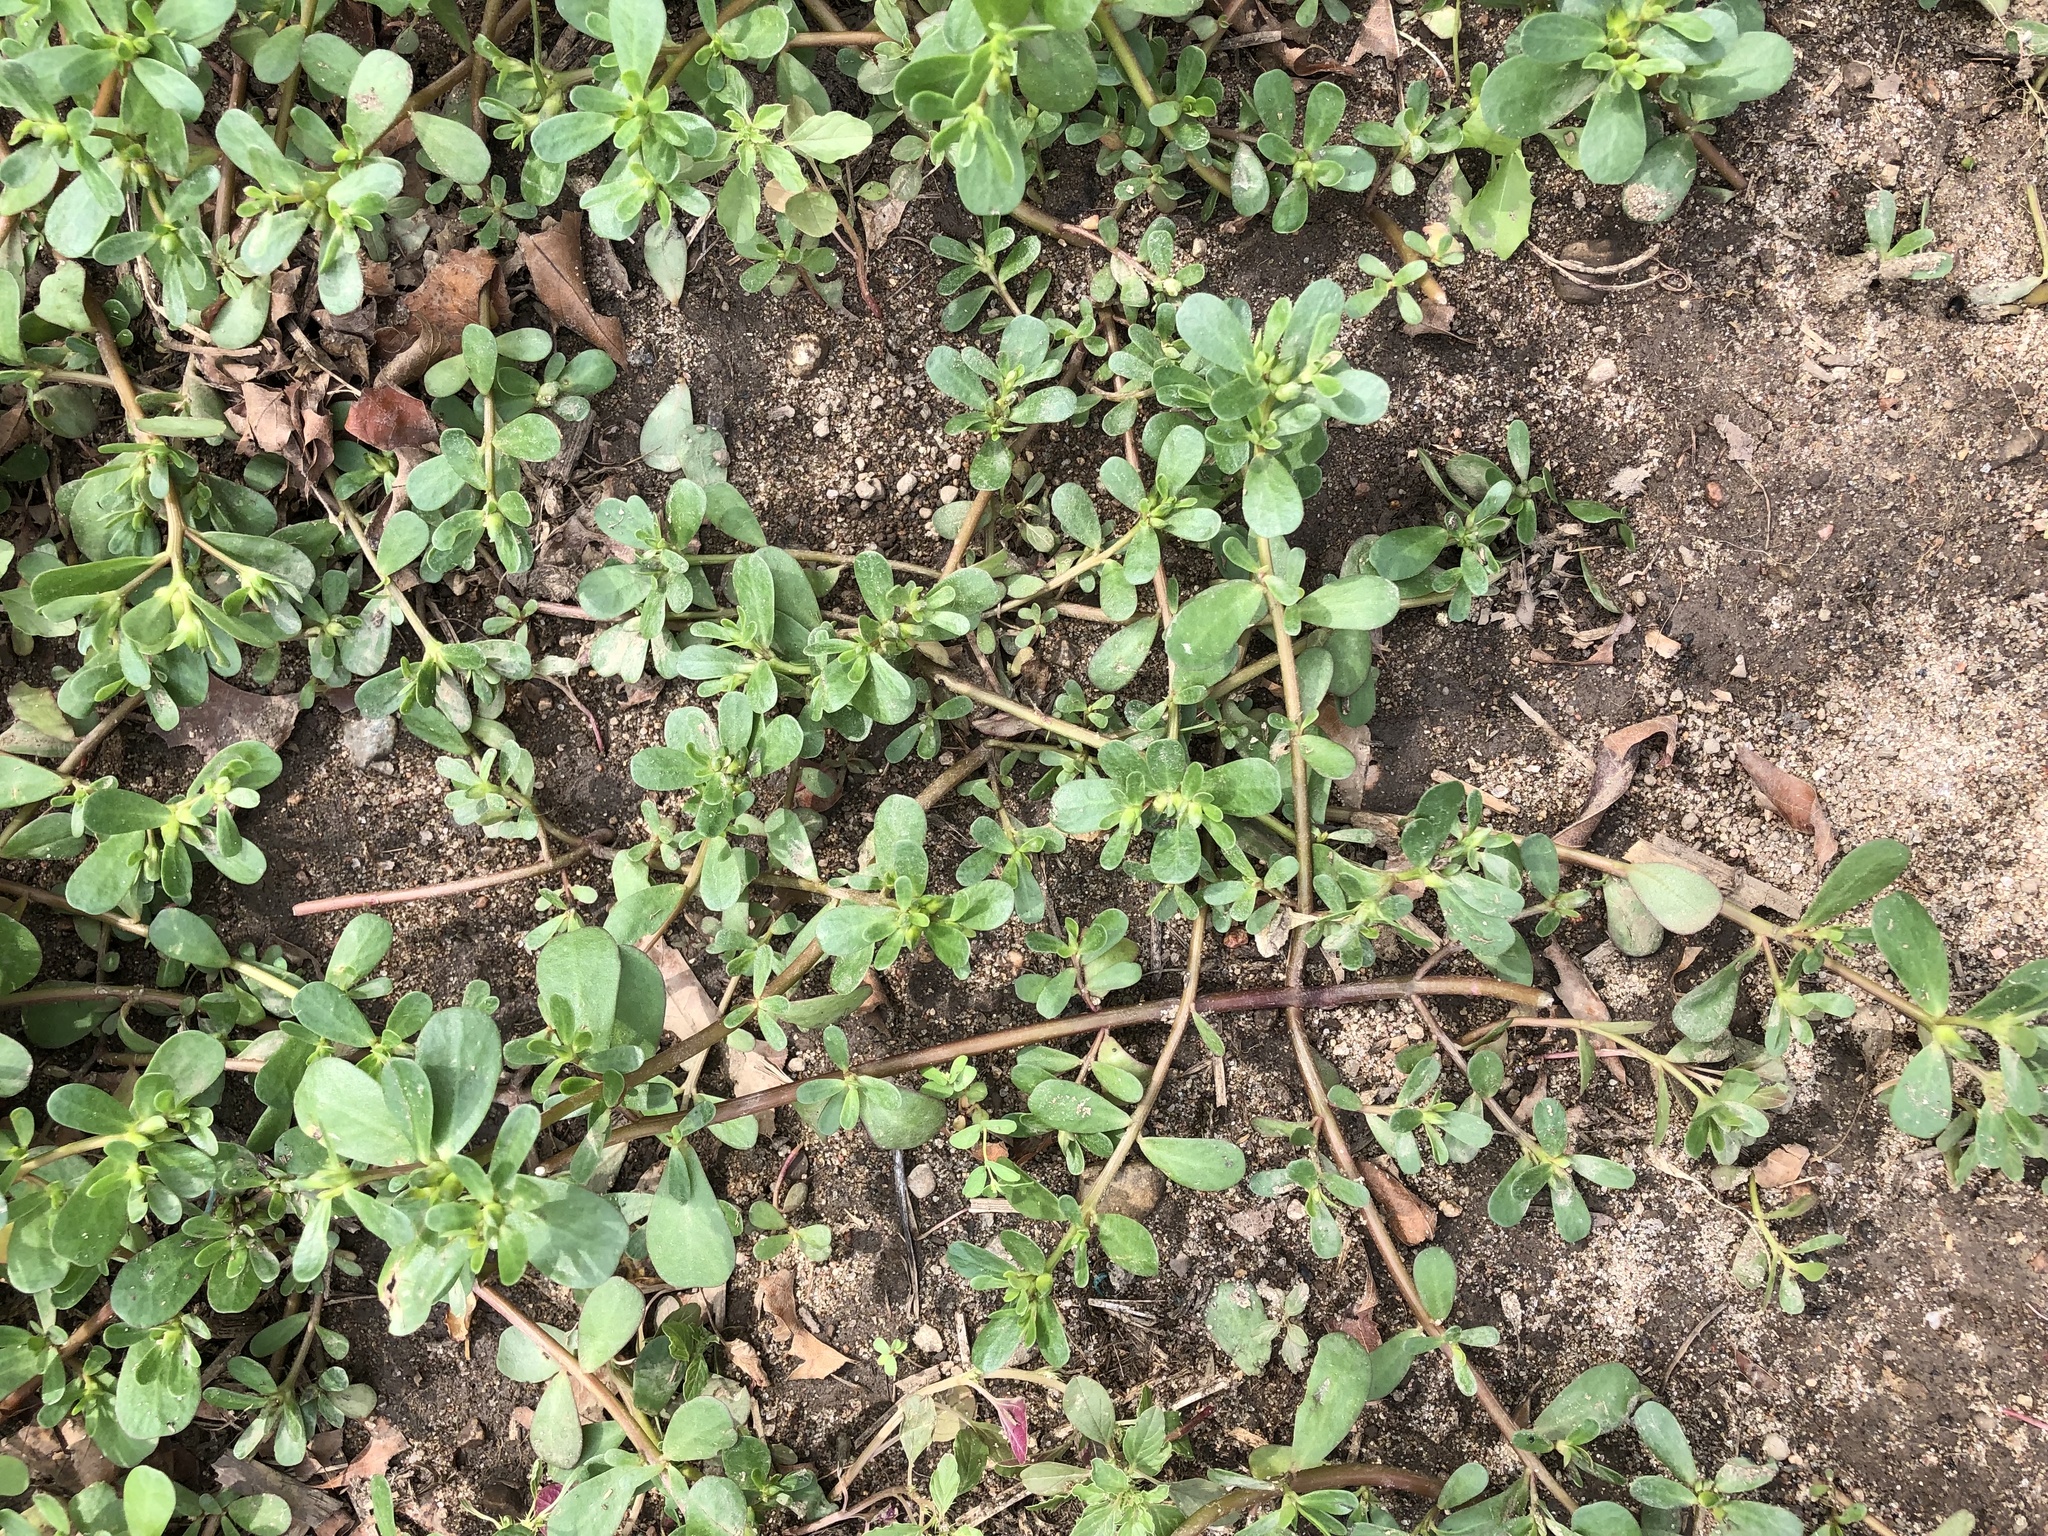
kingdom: Plantae
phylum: Tracheophyta
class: Magnoliopsida
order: Caryophyllales
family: Portulacaceae
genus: Portulaca
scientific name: Portulaca oleracea
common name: Common purslane
